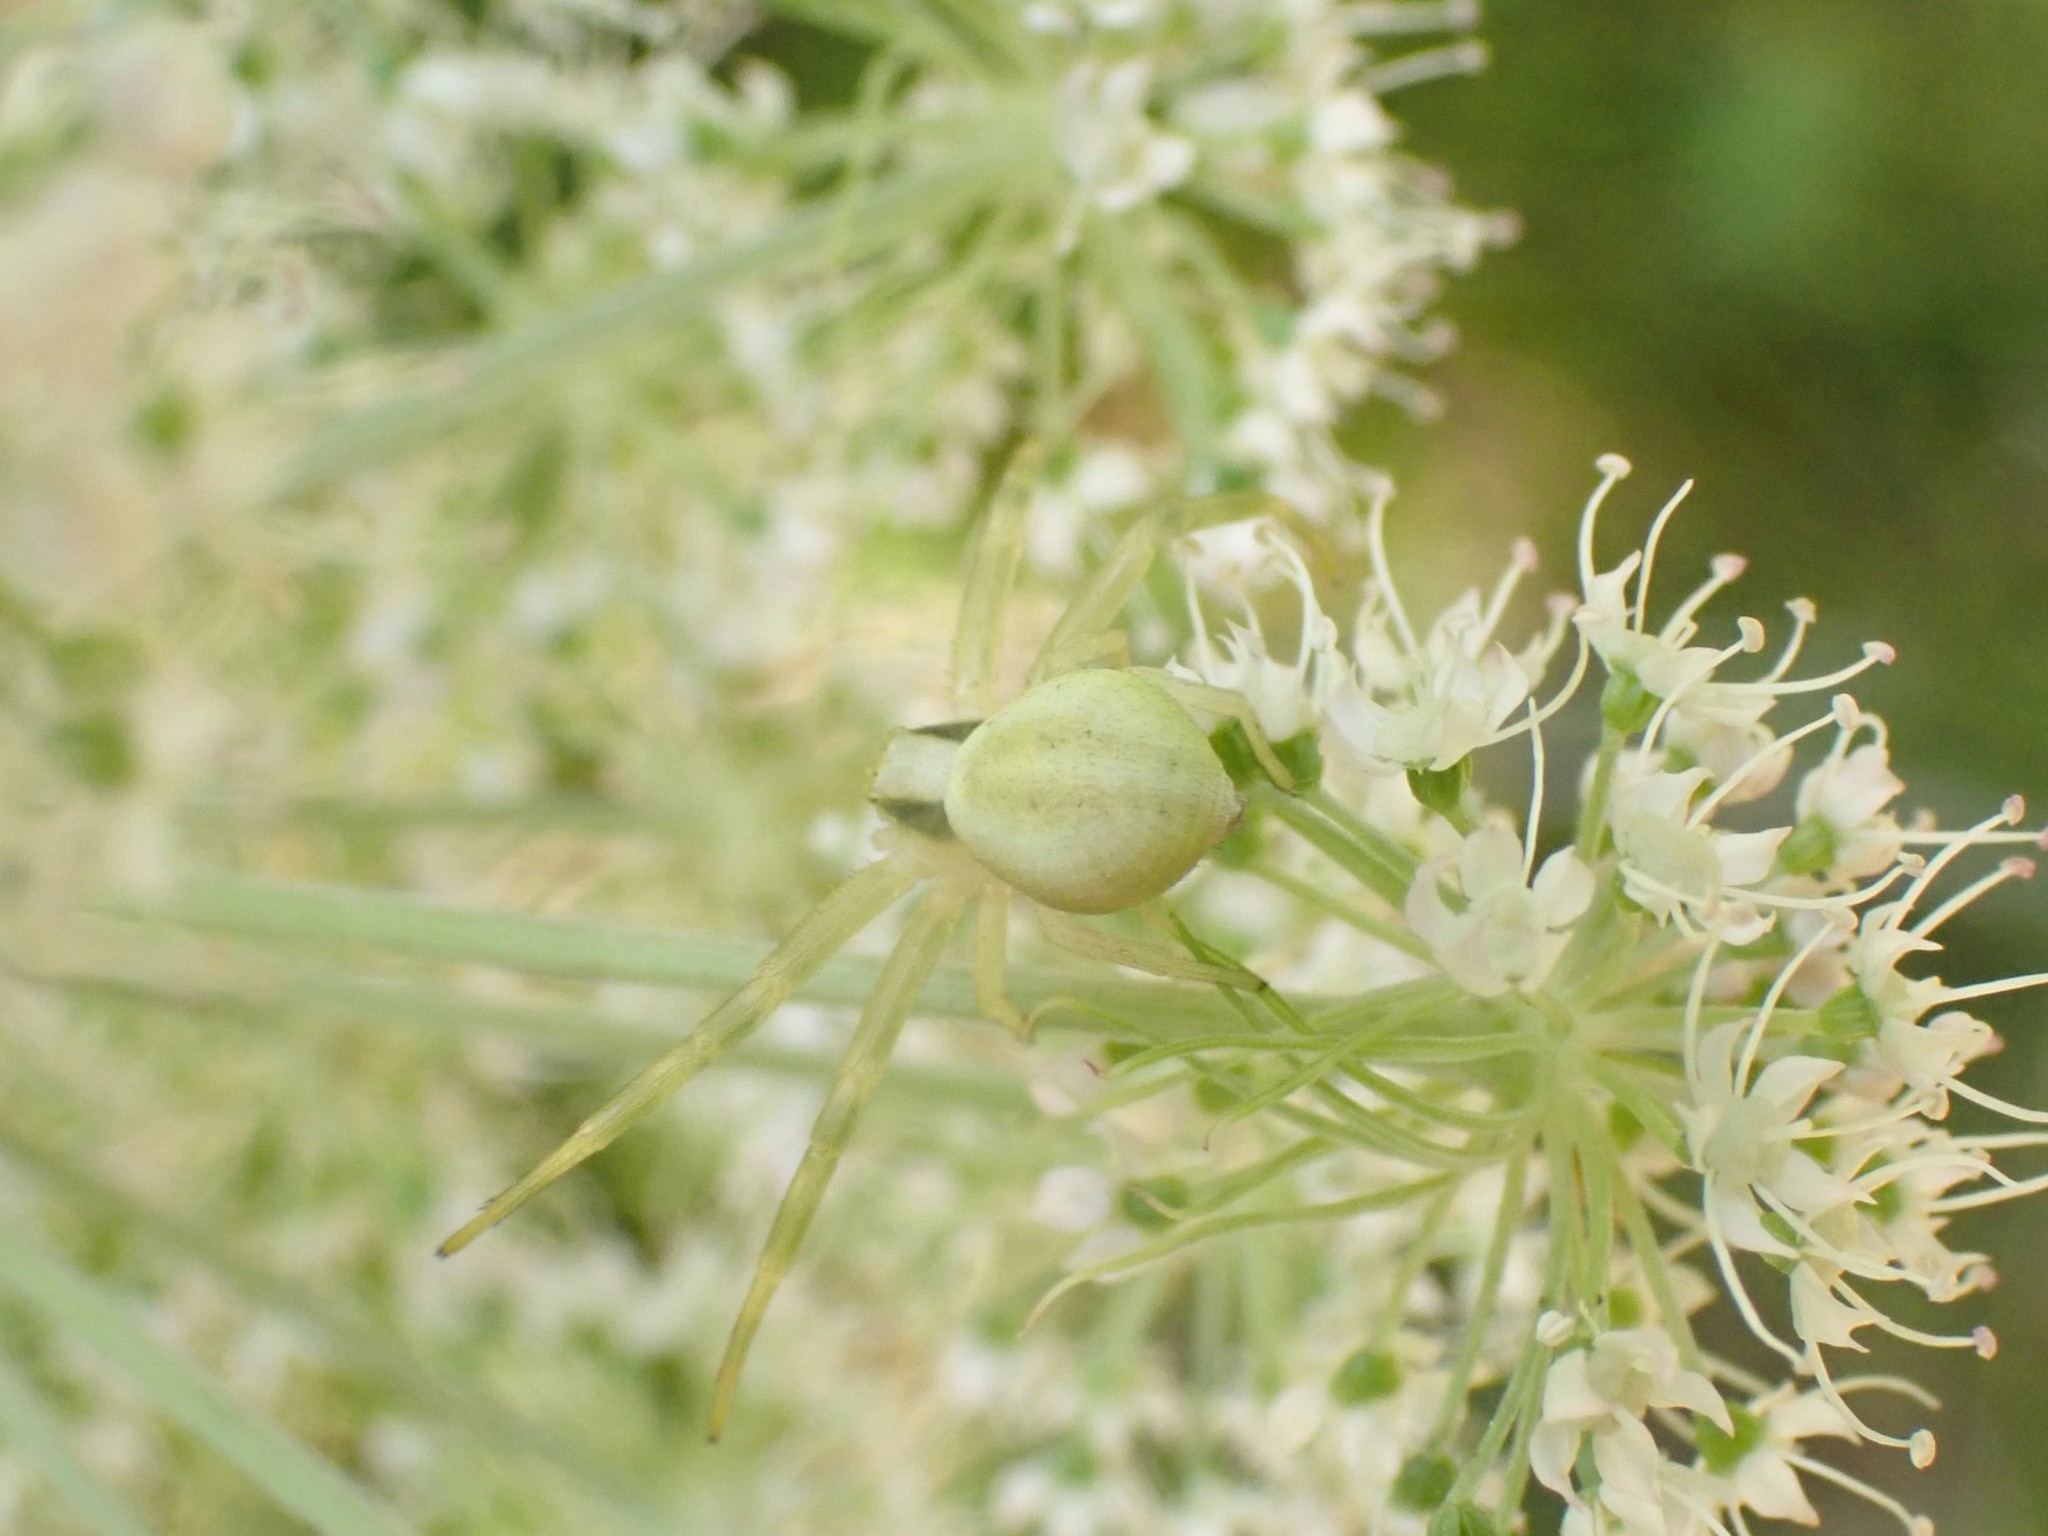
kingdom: Animalia
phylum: Arthropoda
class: Arachnida
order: Araneae
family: Thomisidae
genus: Misumena
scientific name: Misumena vatia
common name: Goldenrod crab spider
